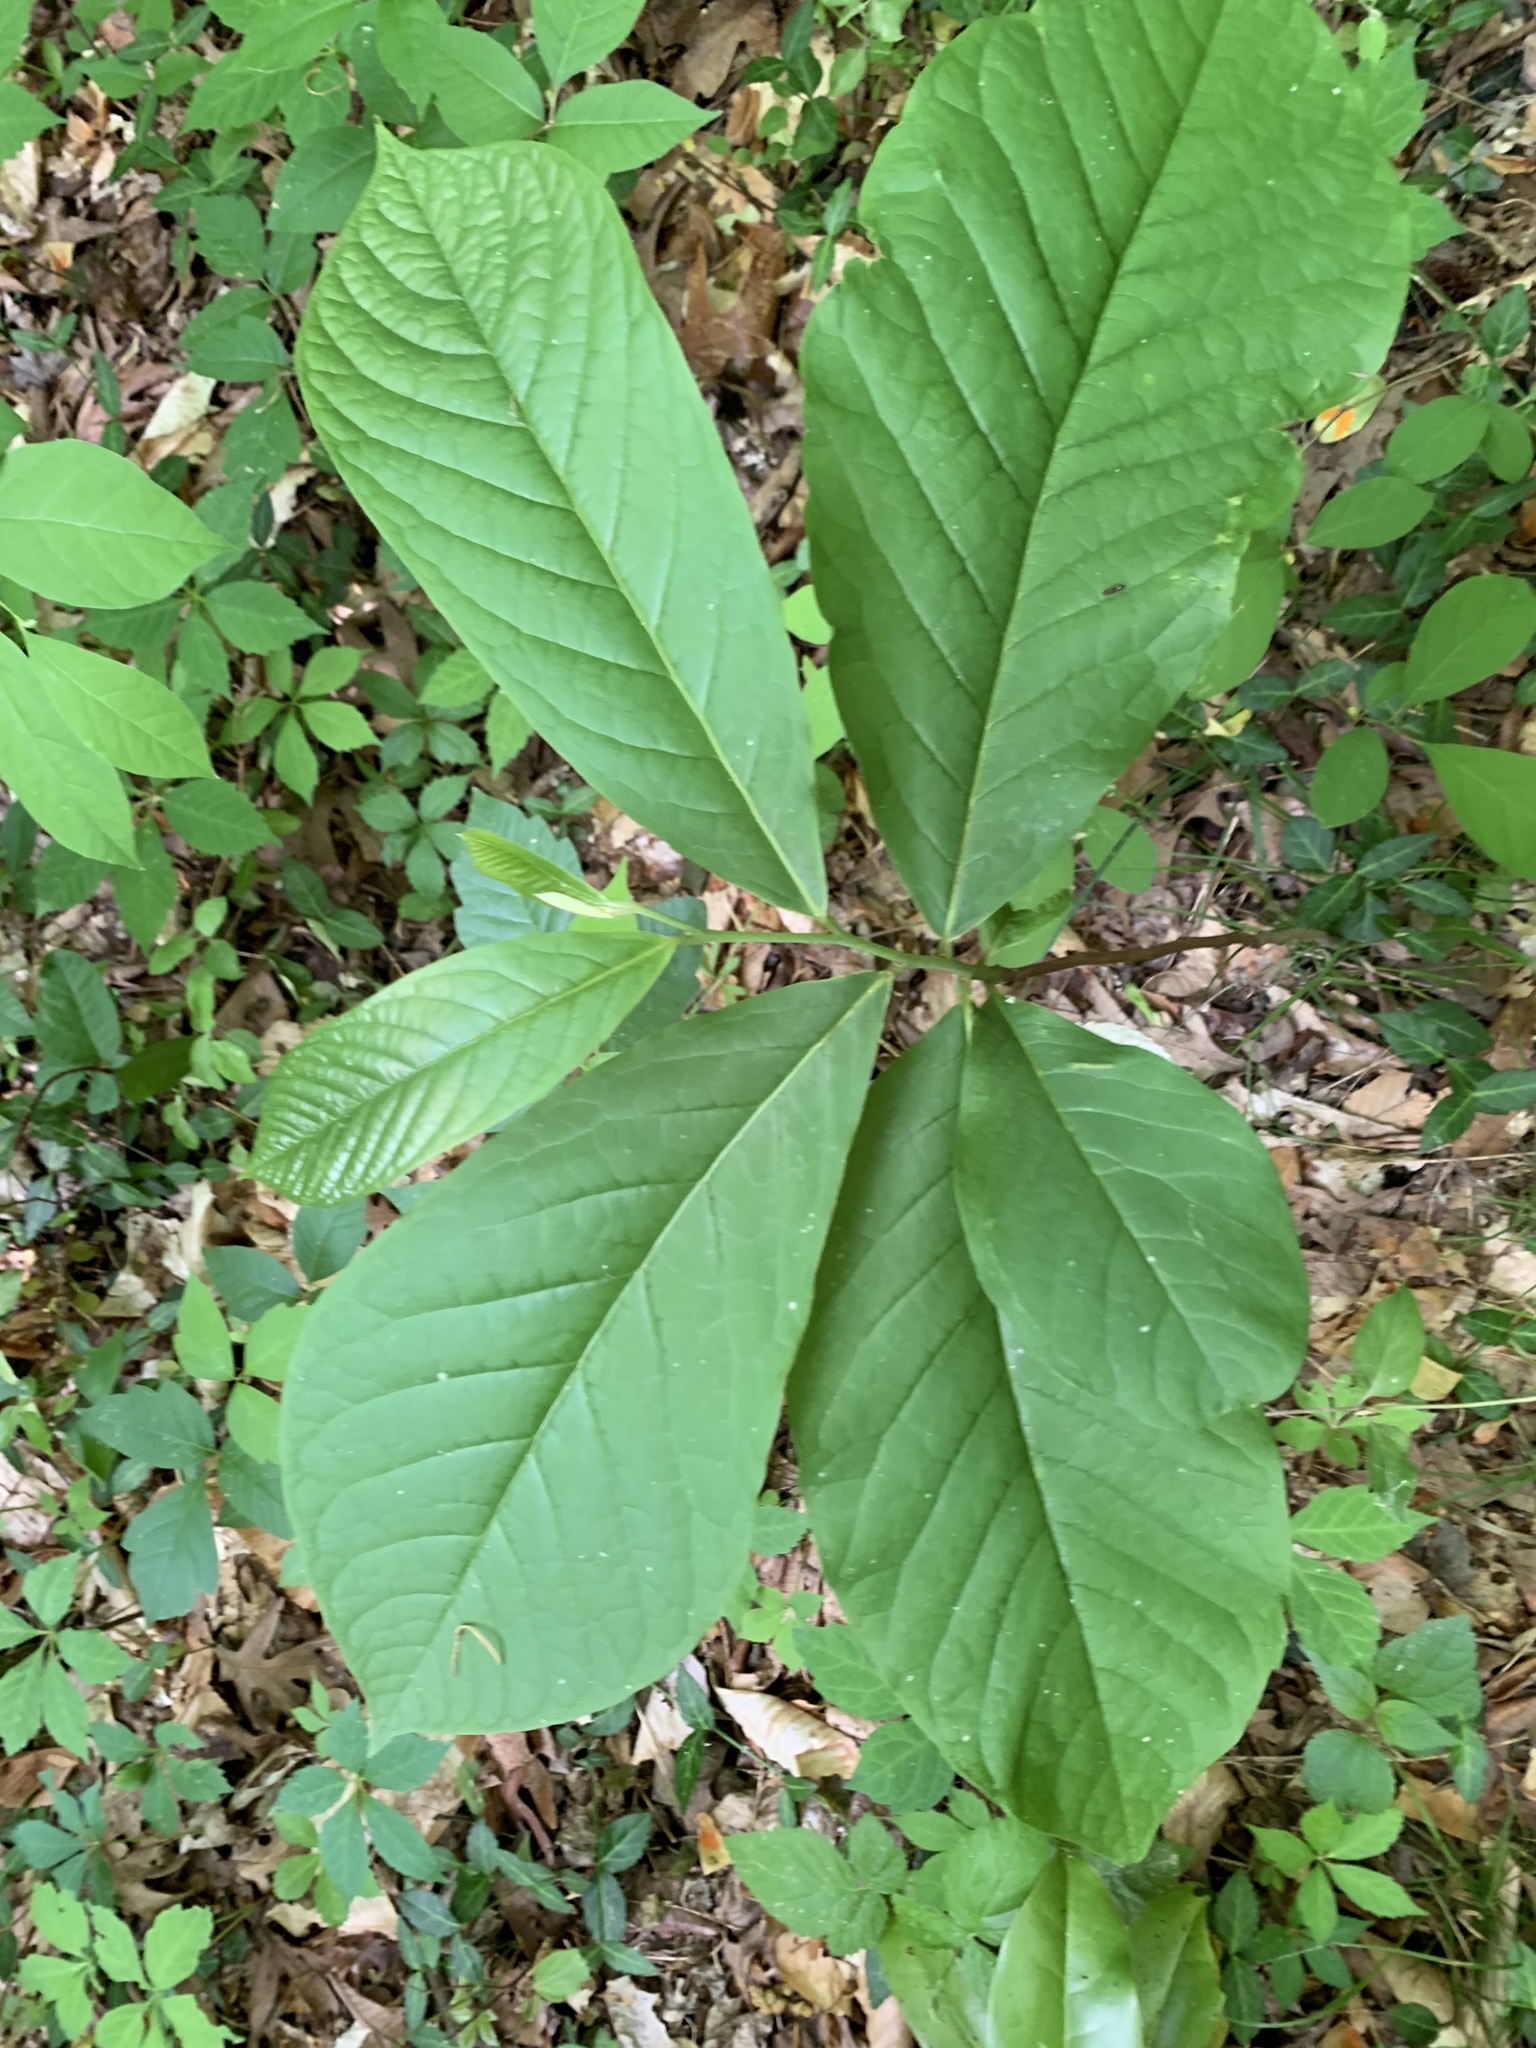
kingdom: Plantae
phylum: Tracheophyta
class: Magnoliopsida
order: Magnoliales
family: Annonaceae
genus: Asimina
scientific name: Asimina triloba
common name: Dog-banana
